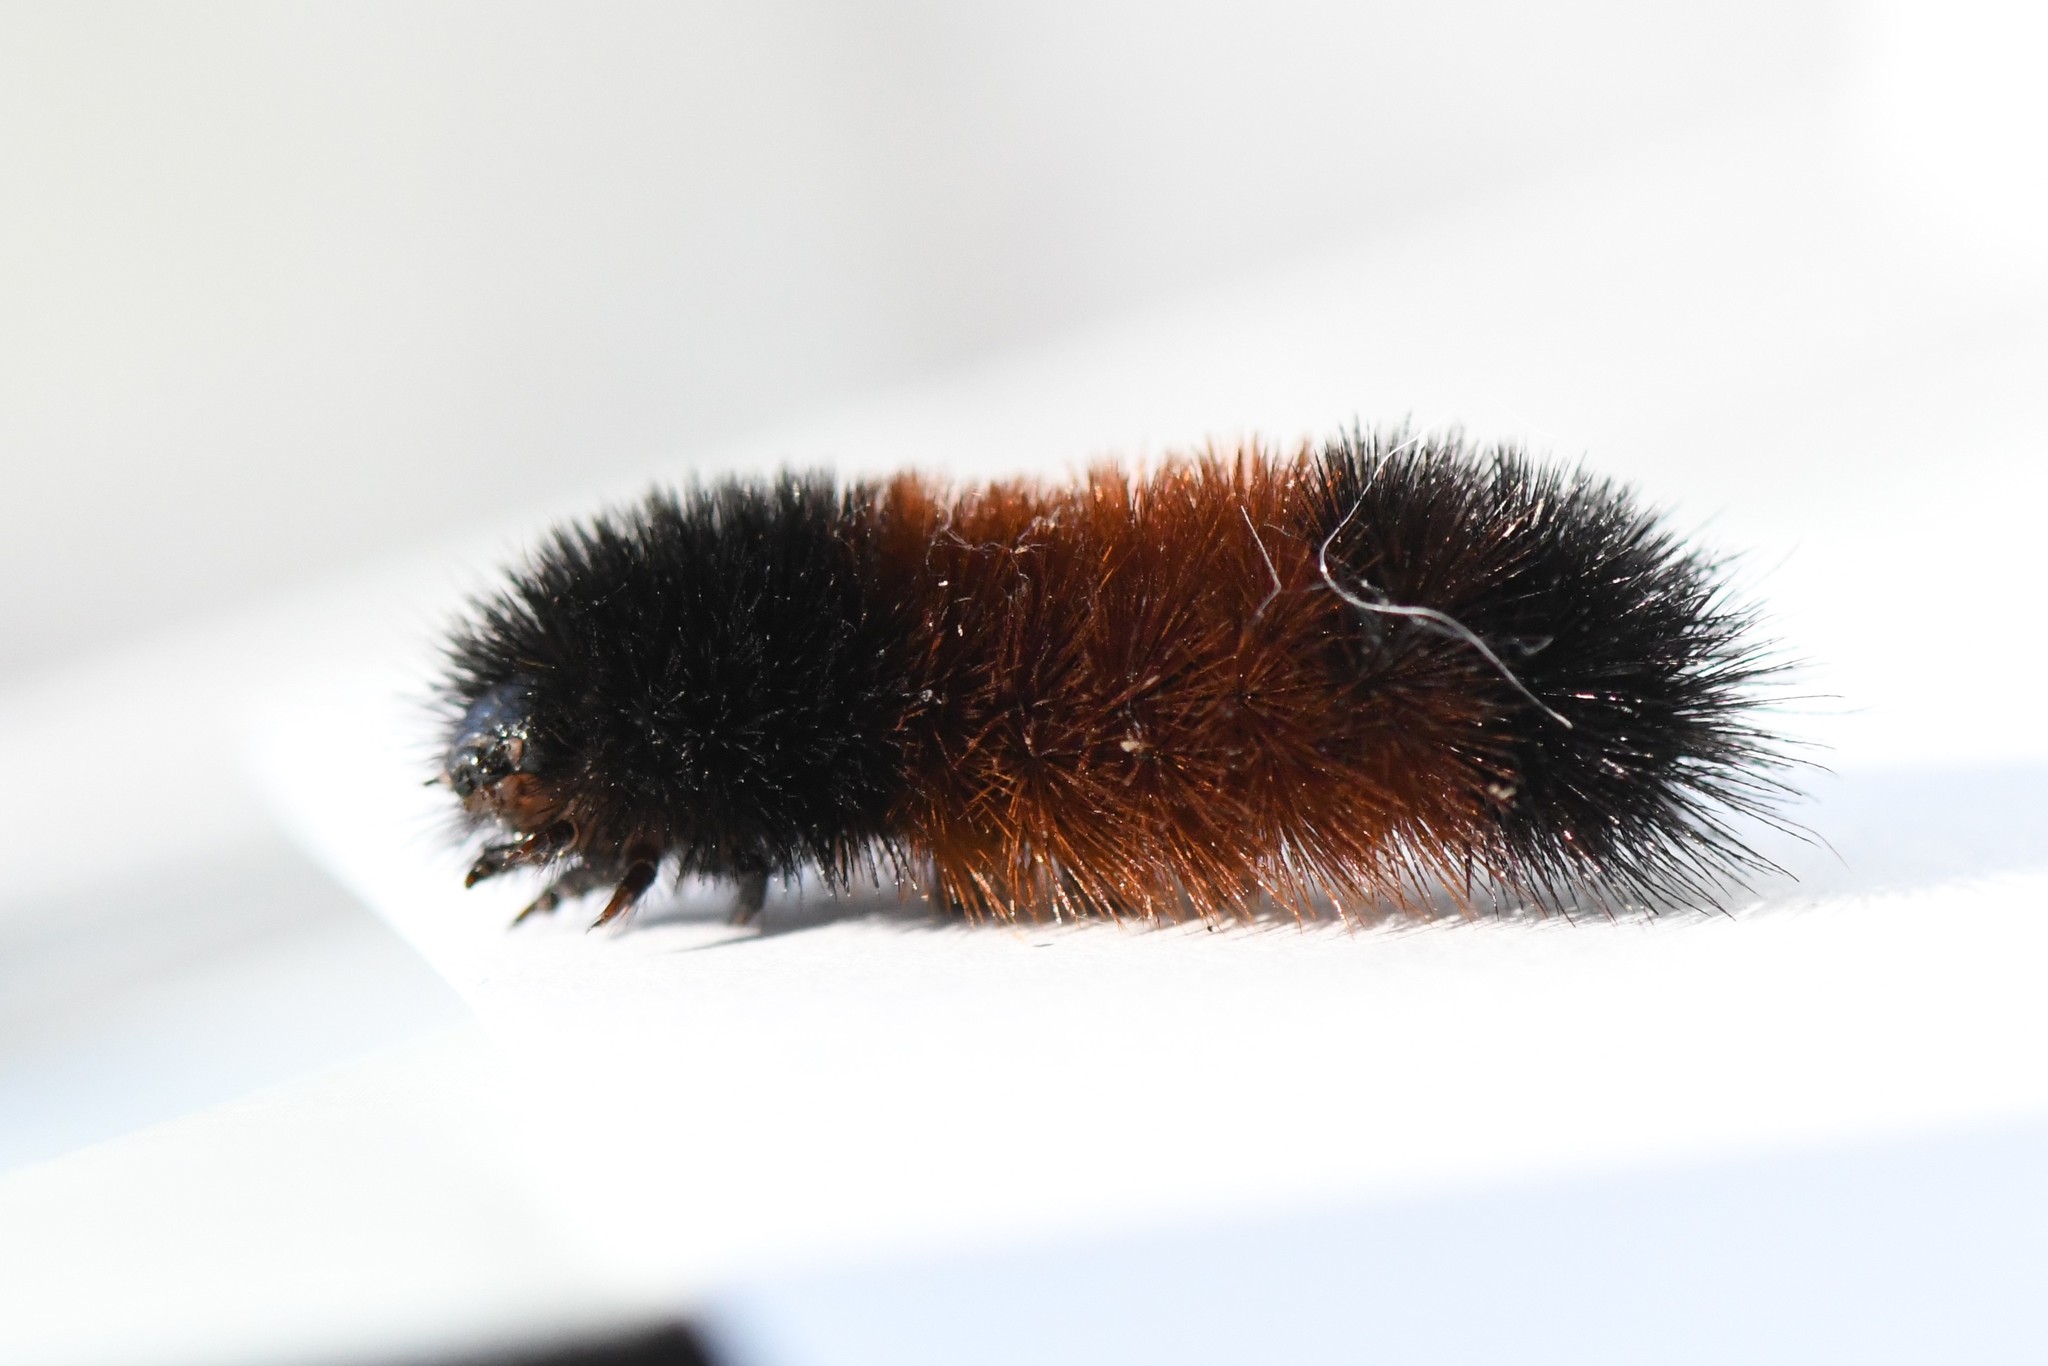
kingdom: Animalia
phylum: Arthropoda
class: Insecta
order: Lepidoptera
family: Erebidae
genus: Pyrrharctia
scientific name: Pyrrharctia isabella
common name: Isabella tiger moth
